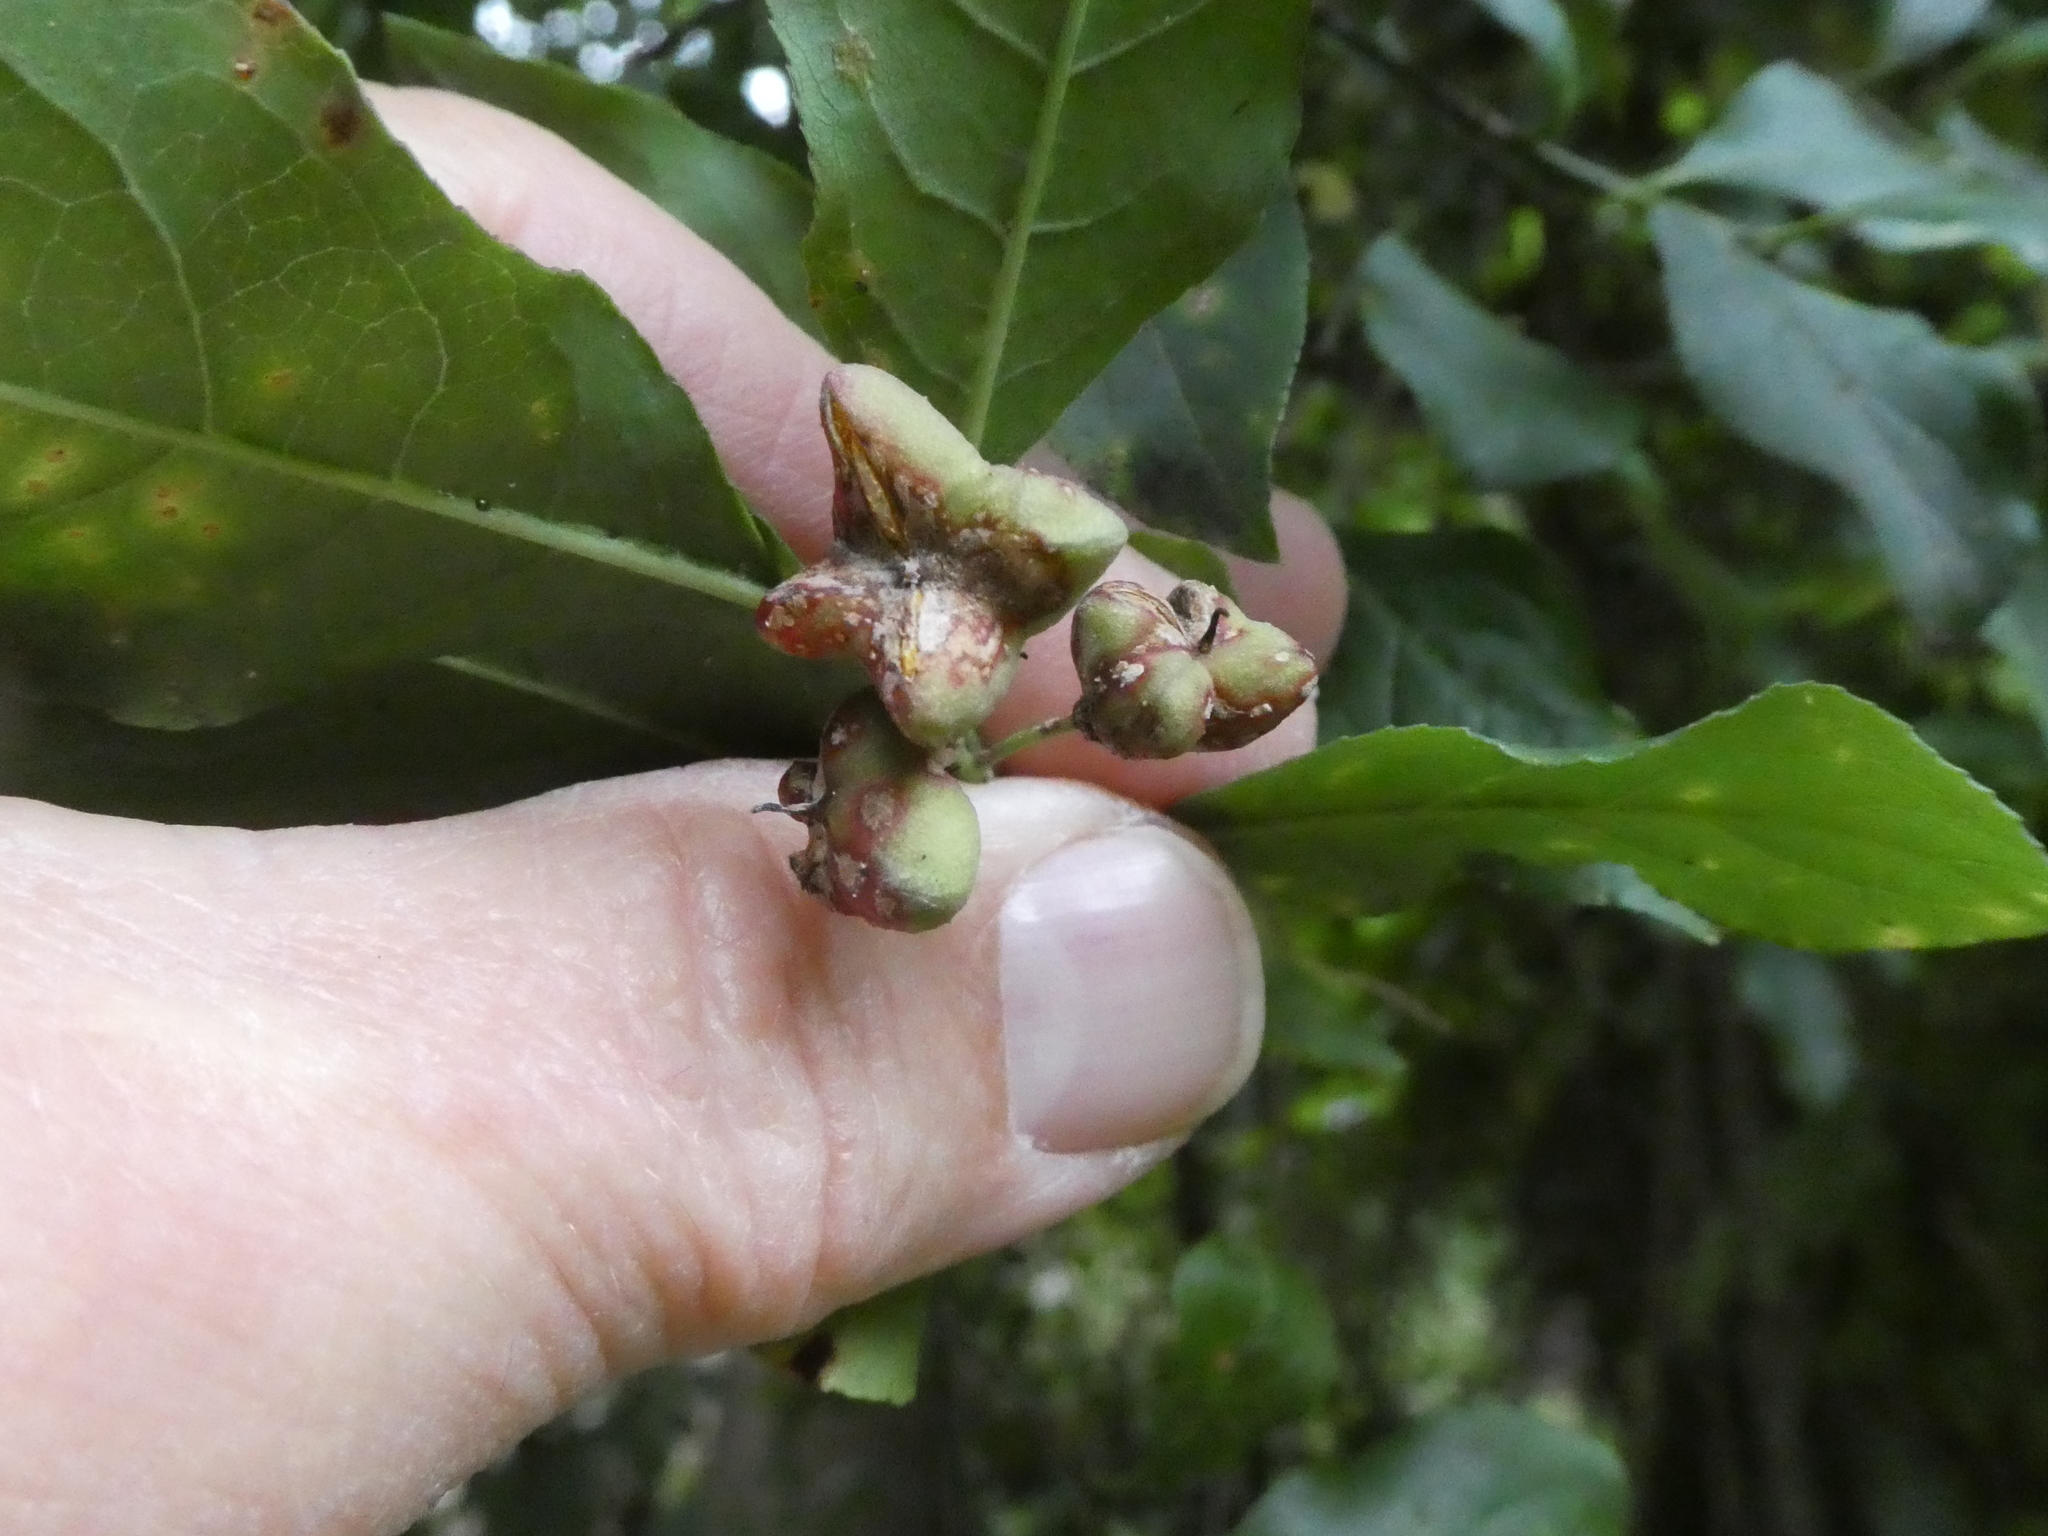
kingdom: Plantae
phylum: Tracheophyta
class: Magnoliopsida
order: Celastrales
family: Celastraceae
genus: Euonymus
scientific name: Euonymus europaeus
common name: Spindle
